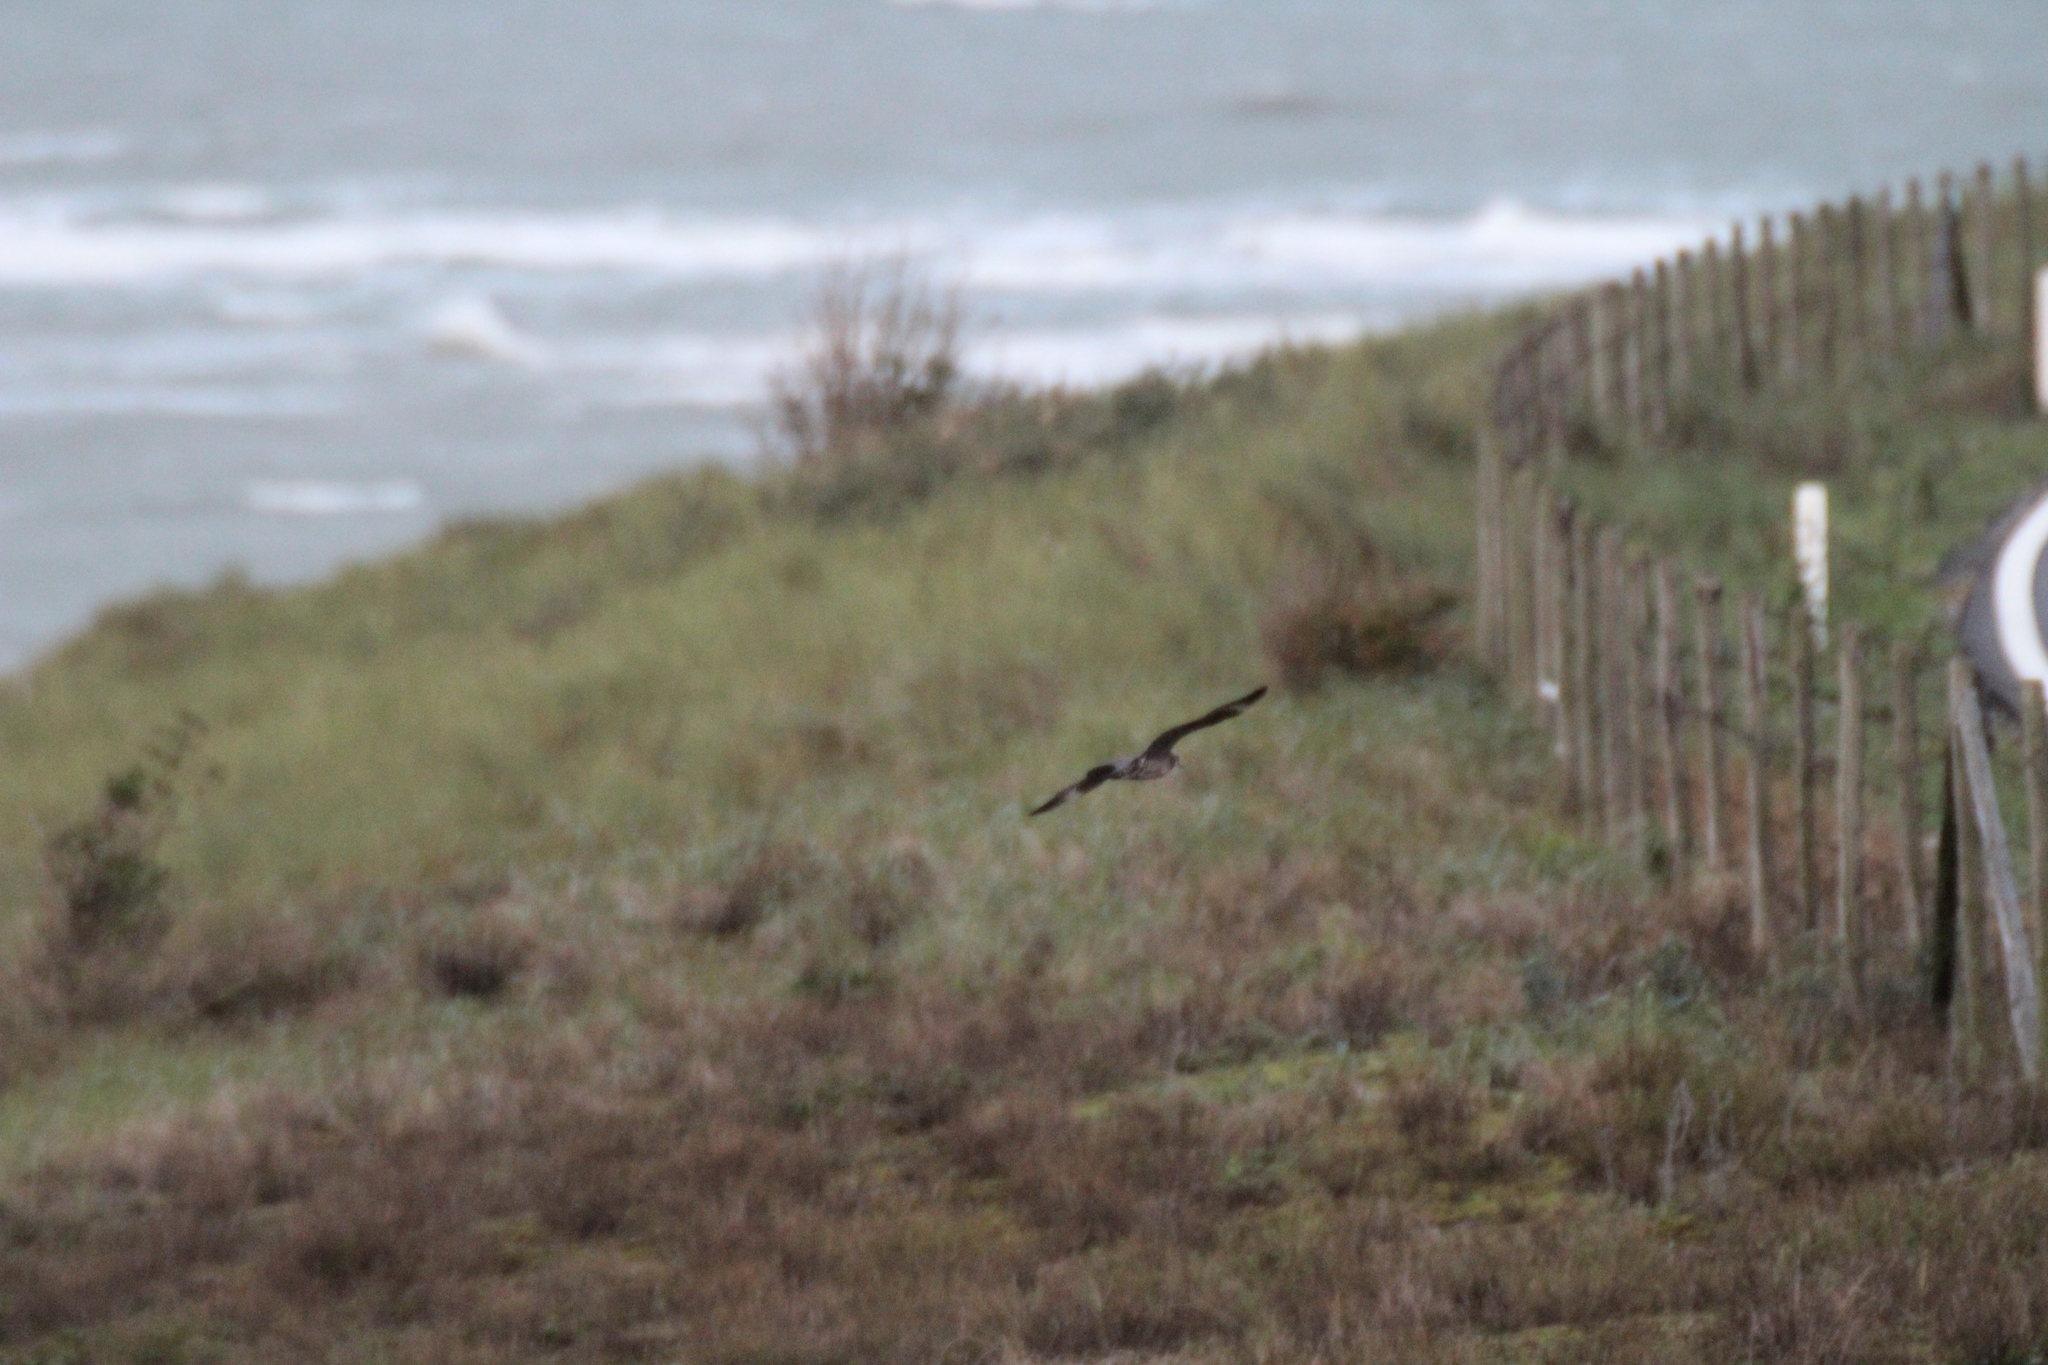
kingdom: Animalia
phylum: Chordata
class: Aves
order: Charadriiformes
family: Stercorariidae
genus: Stercorarius
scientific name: Stercorarius longicaudus
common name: Long-tailed jaeger
